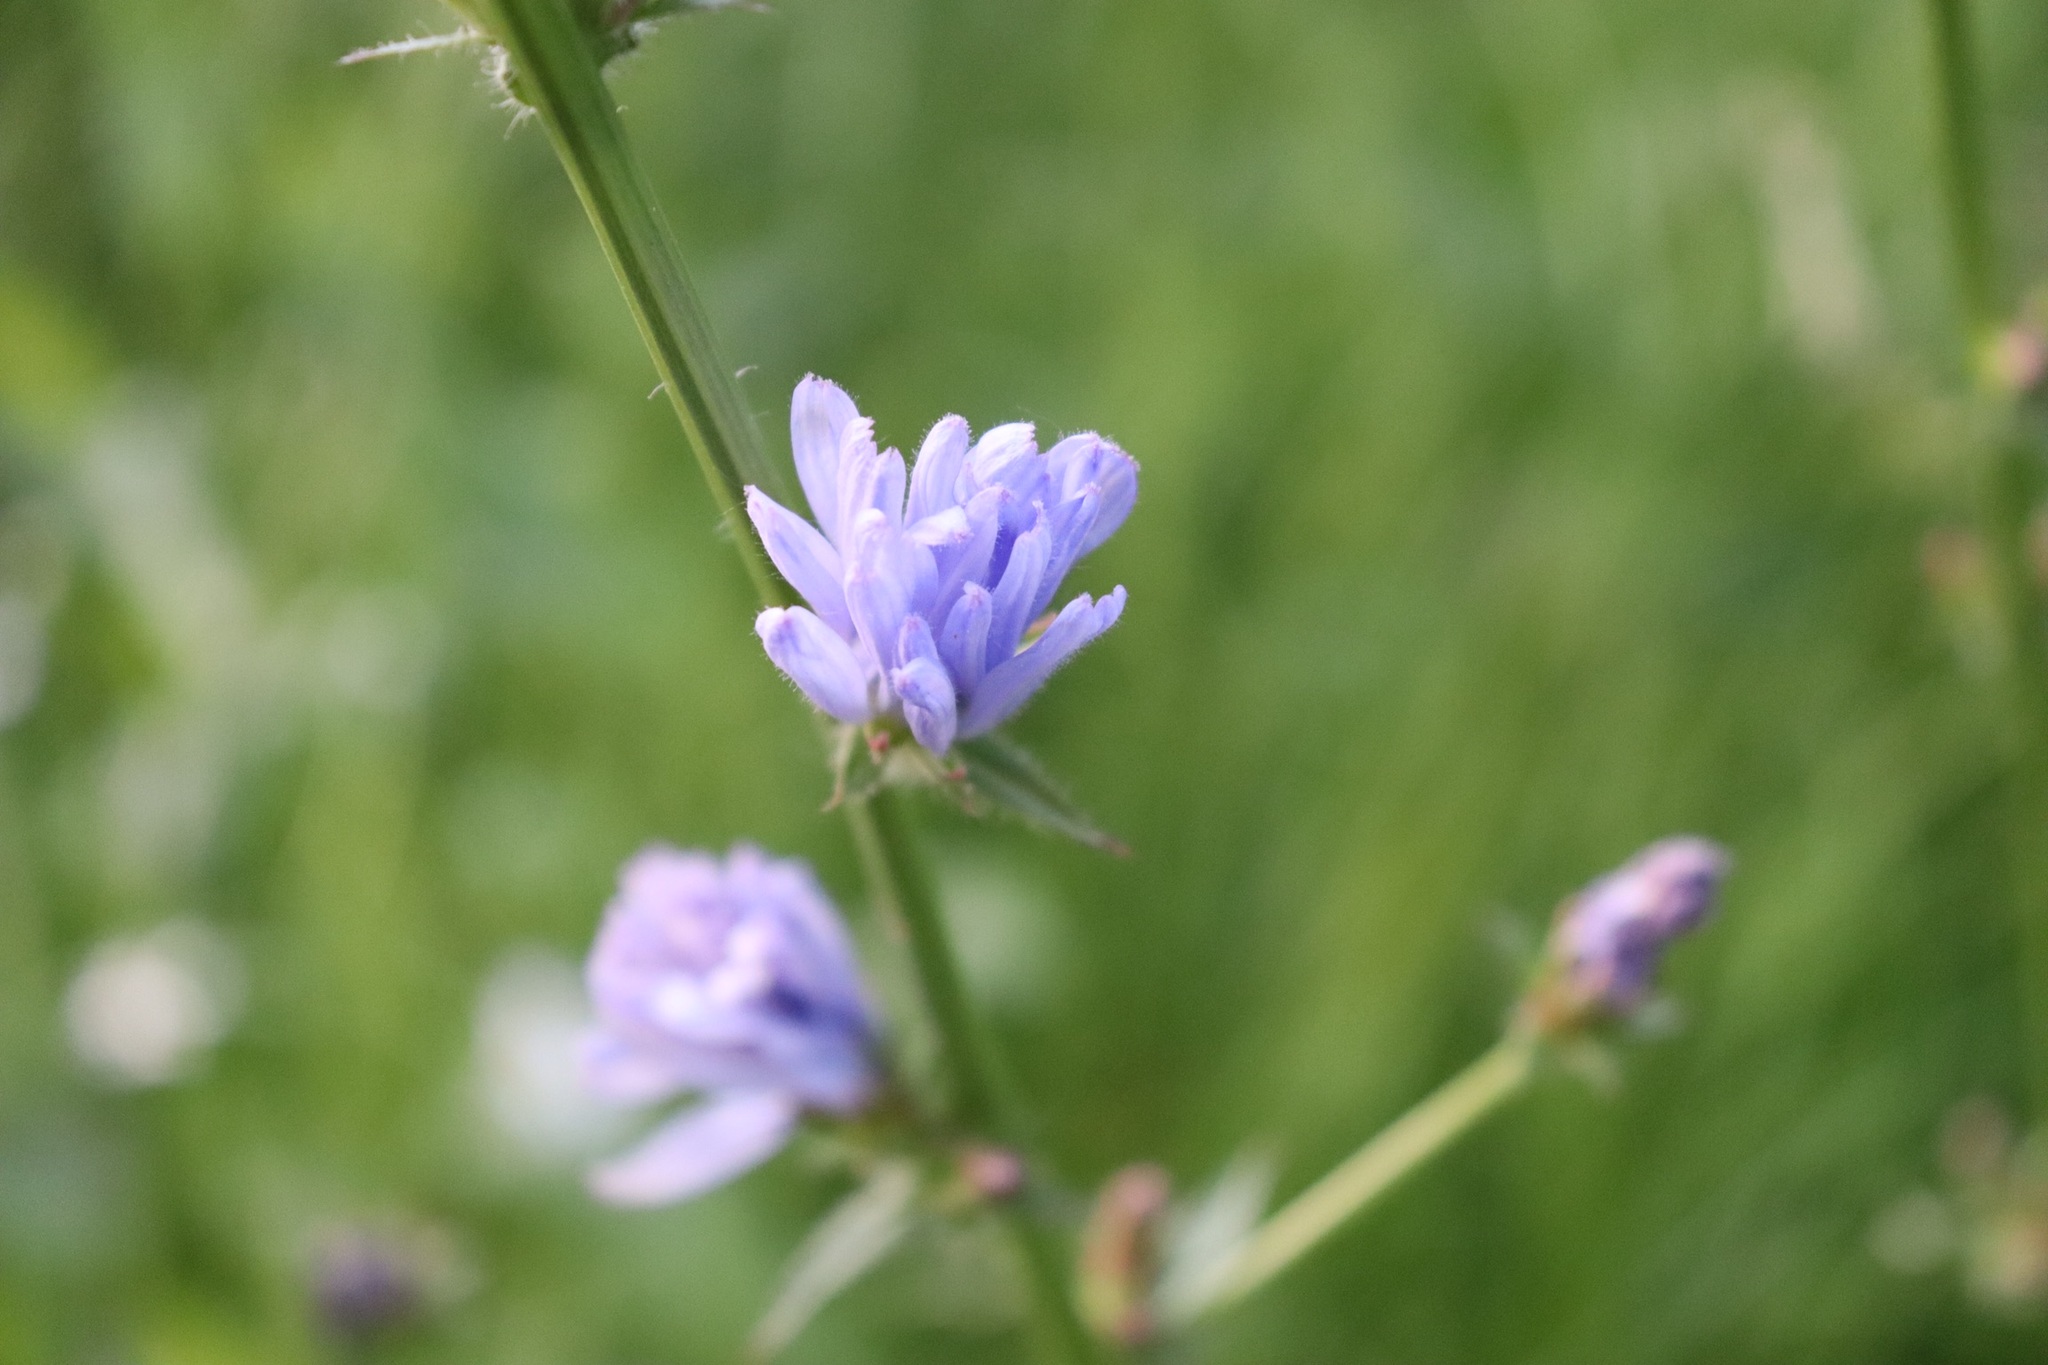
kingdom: Plantae
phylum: Tracheophyta
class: Magnoliopsida
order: Asterales
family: Asteraceae
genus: Cichorium
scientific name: Cichorium intybus
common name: Chicory
